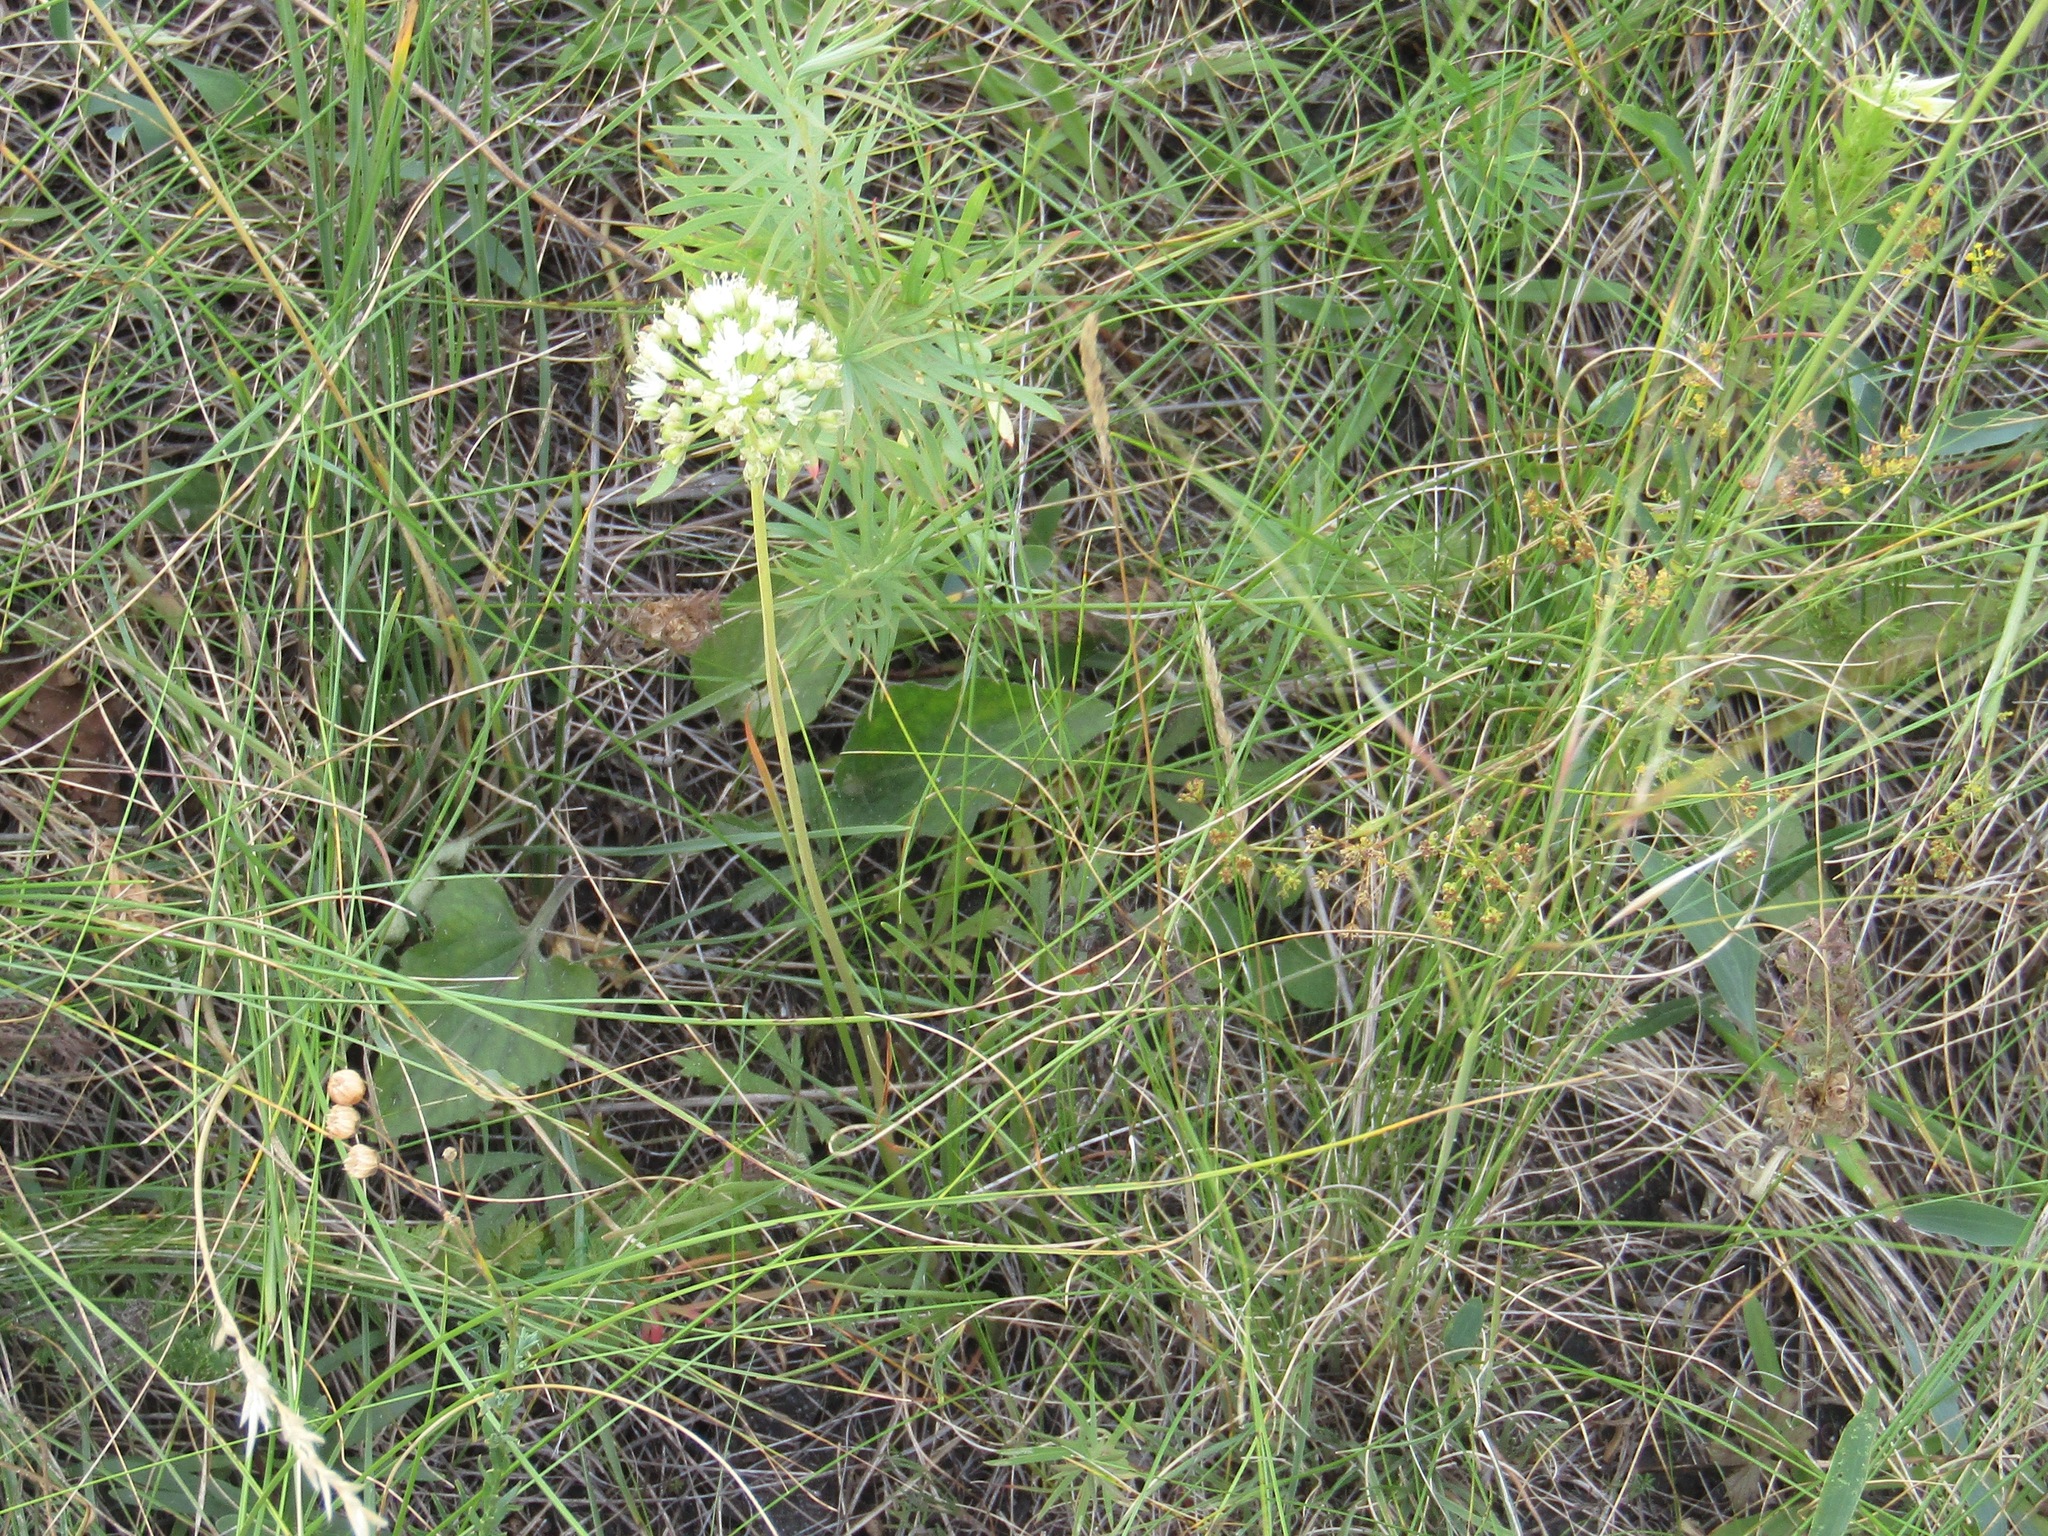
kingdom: Plantae
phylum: Tracheophyta
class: Liliopsida
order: Asparagales
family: Amaryllidaceae
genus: Allium
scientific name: Allium flavescens
